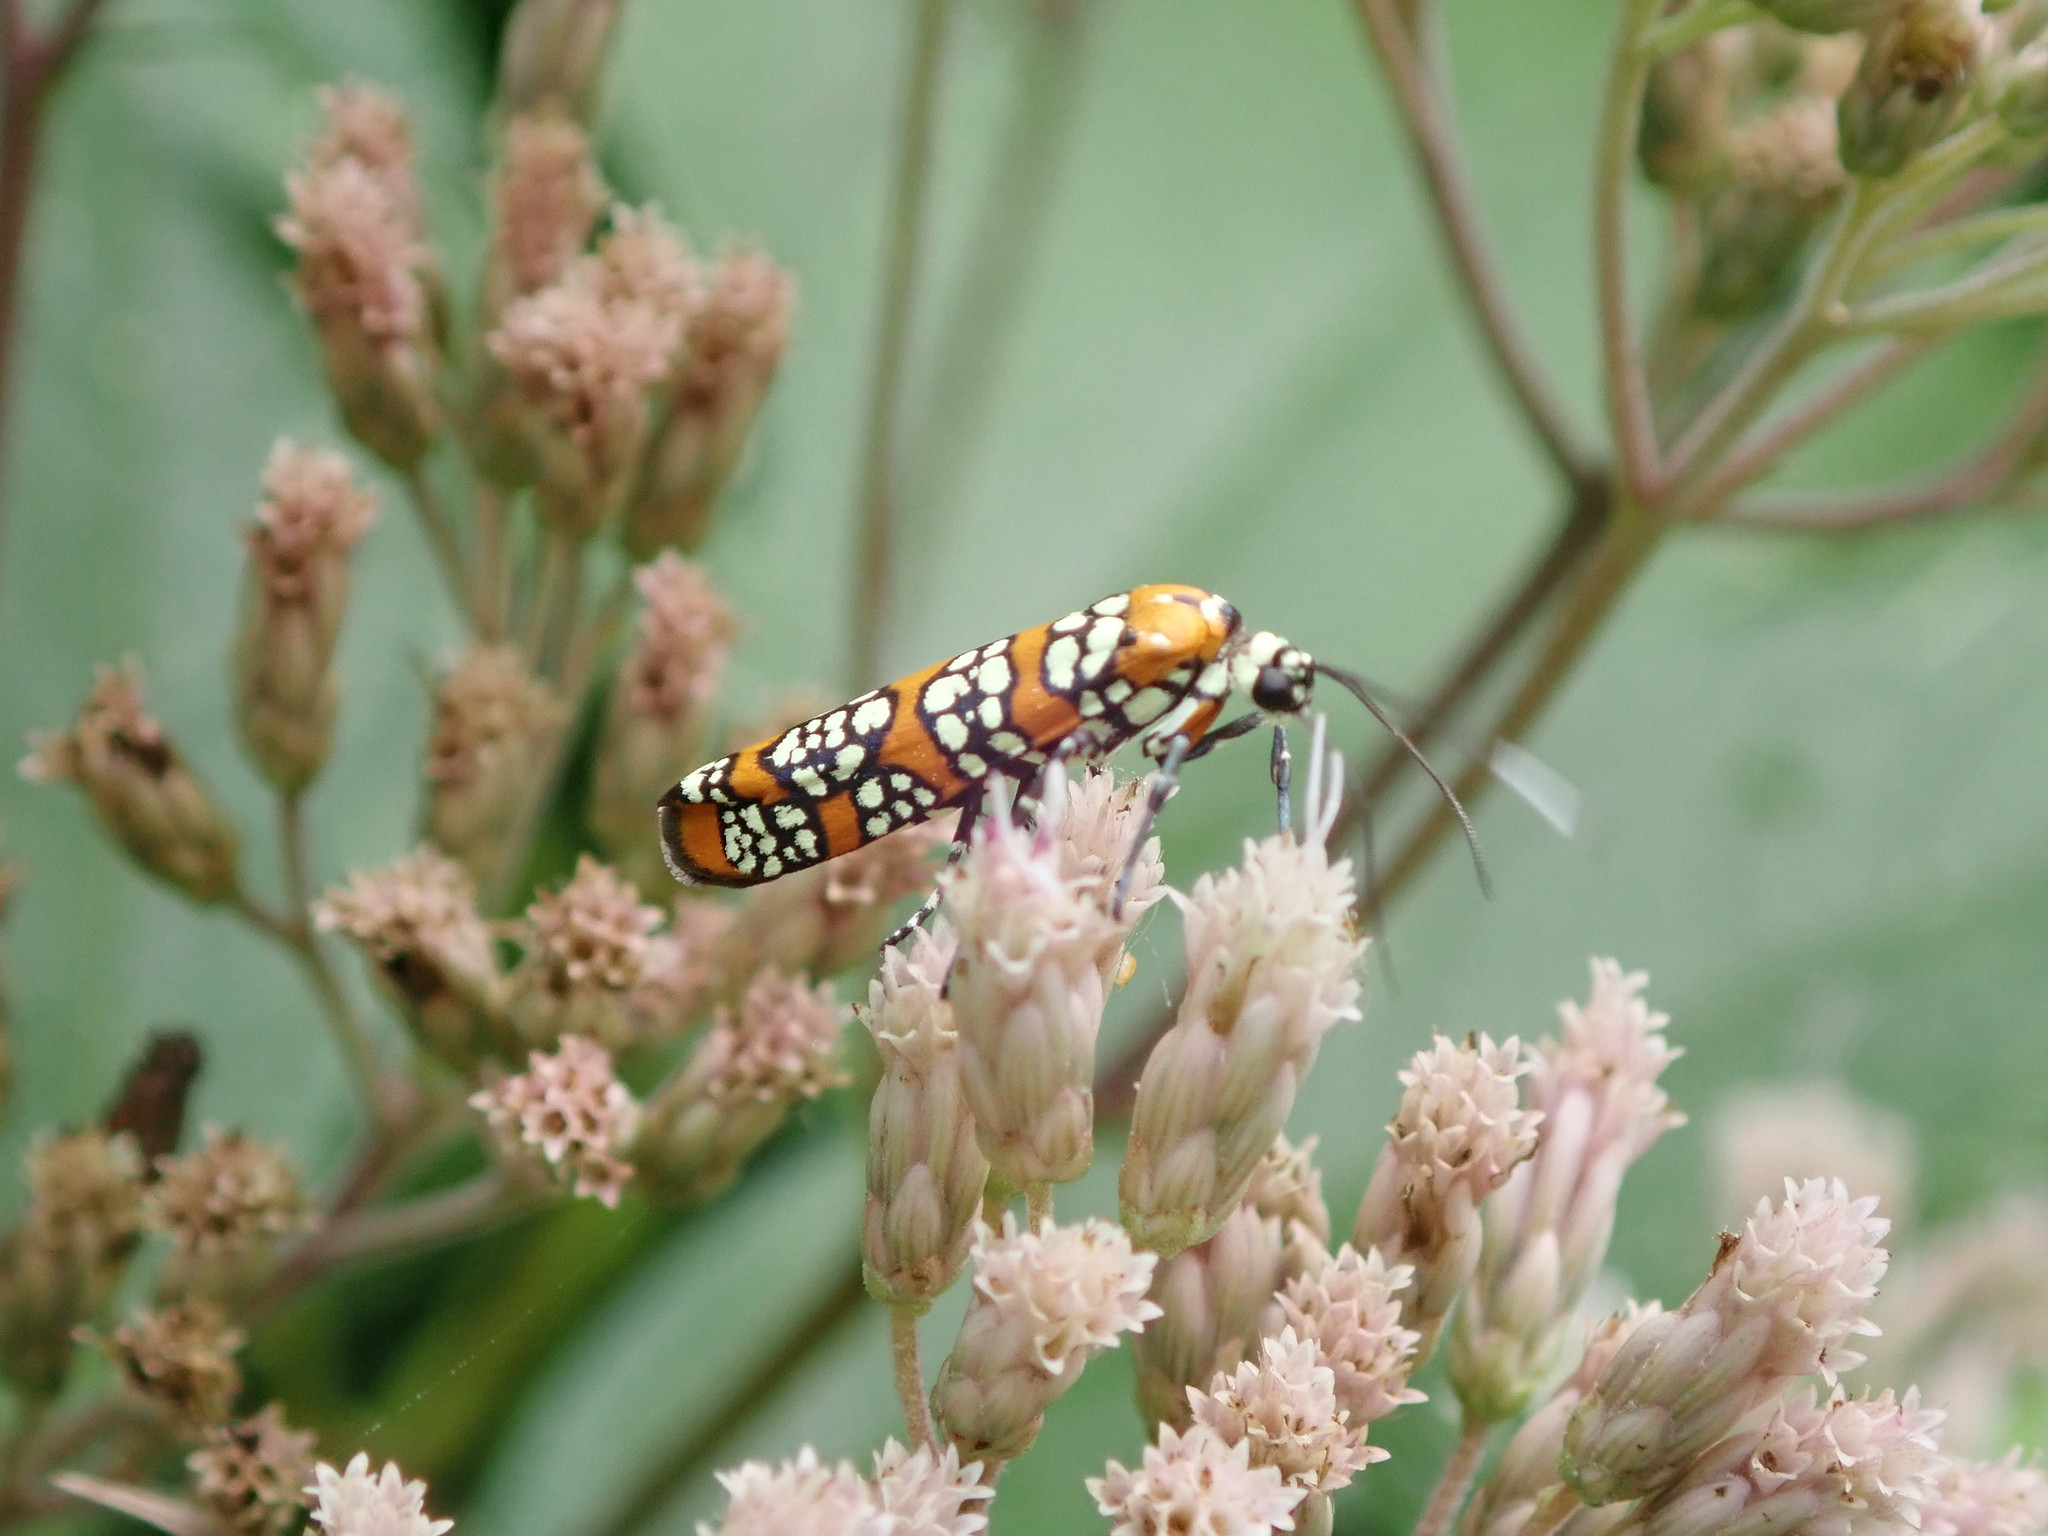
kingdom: Animalia
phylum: Arthropoda
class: Insecta
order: Lepidoptera
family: Attevidae
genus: Atteva
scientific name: Atteva punctella
